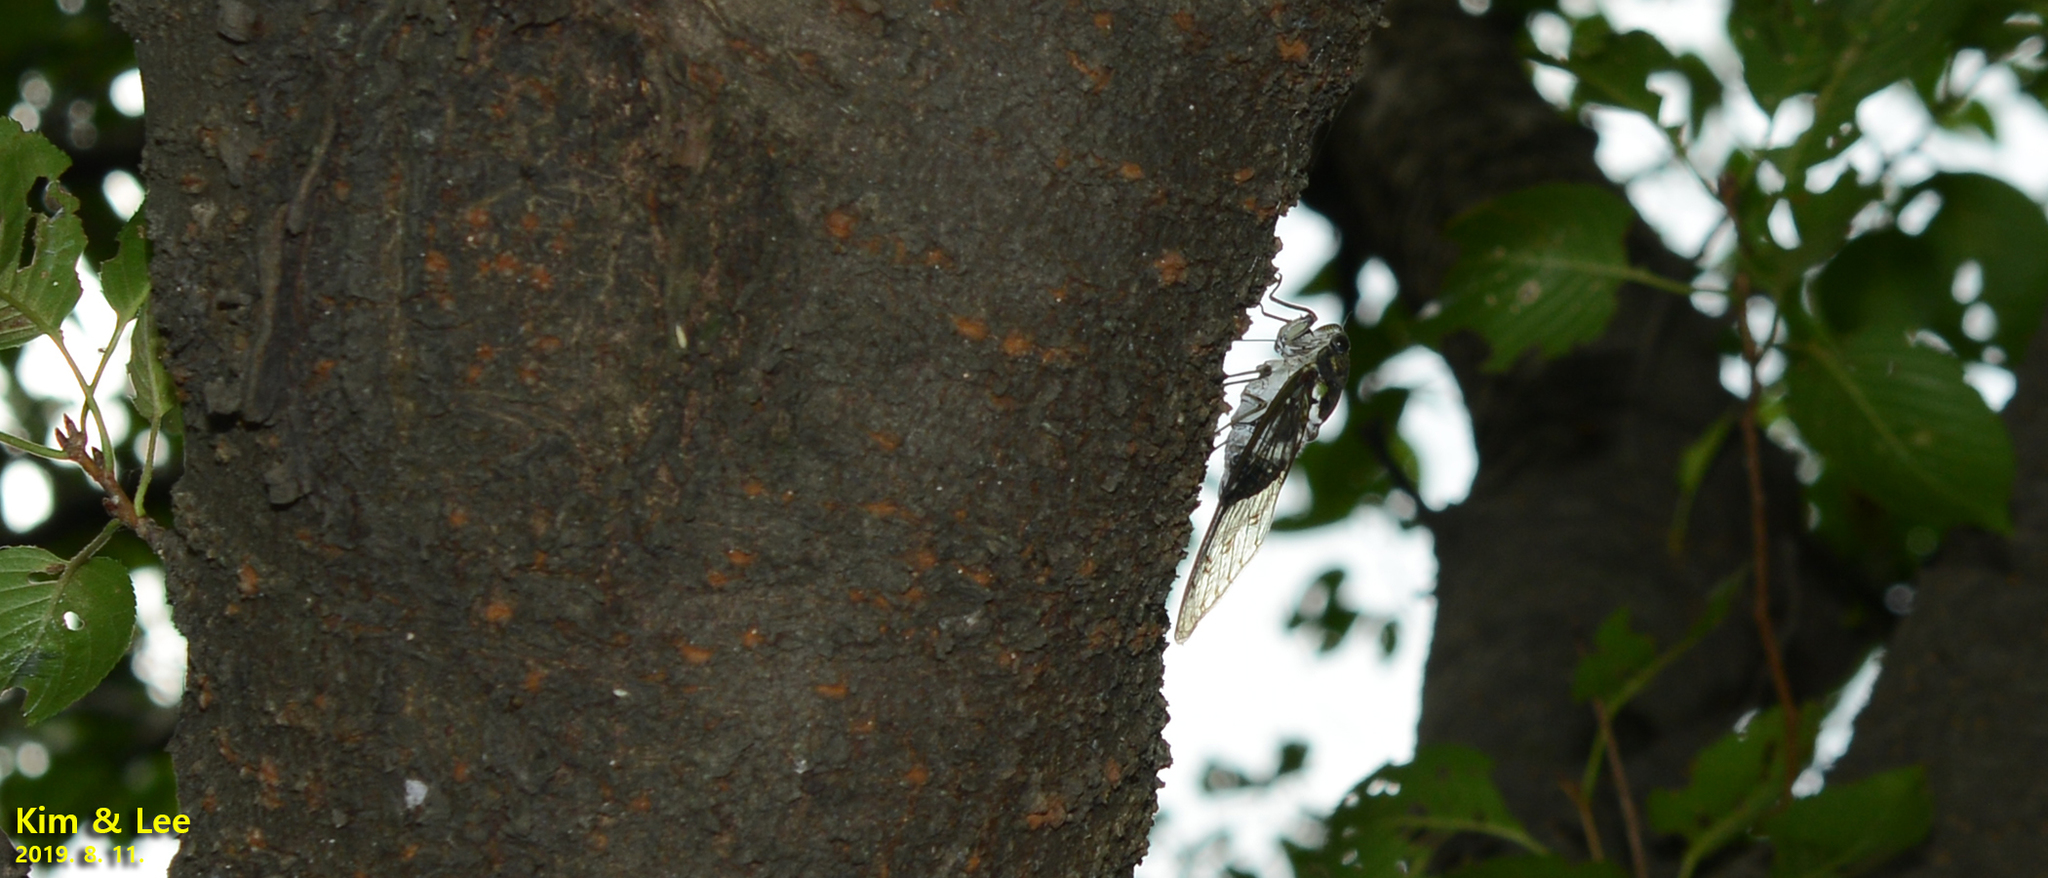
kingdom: Animalia
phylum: Arthropoda
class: Insecta
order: Hemiptera
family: Cicadidae
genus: Hyalessa
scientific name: Hyalessa maculaticollis
